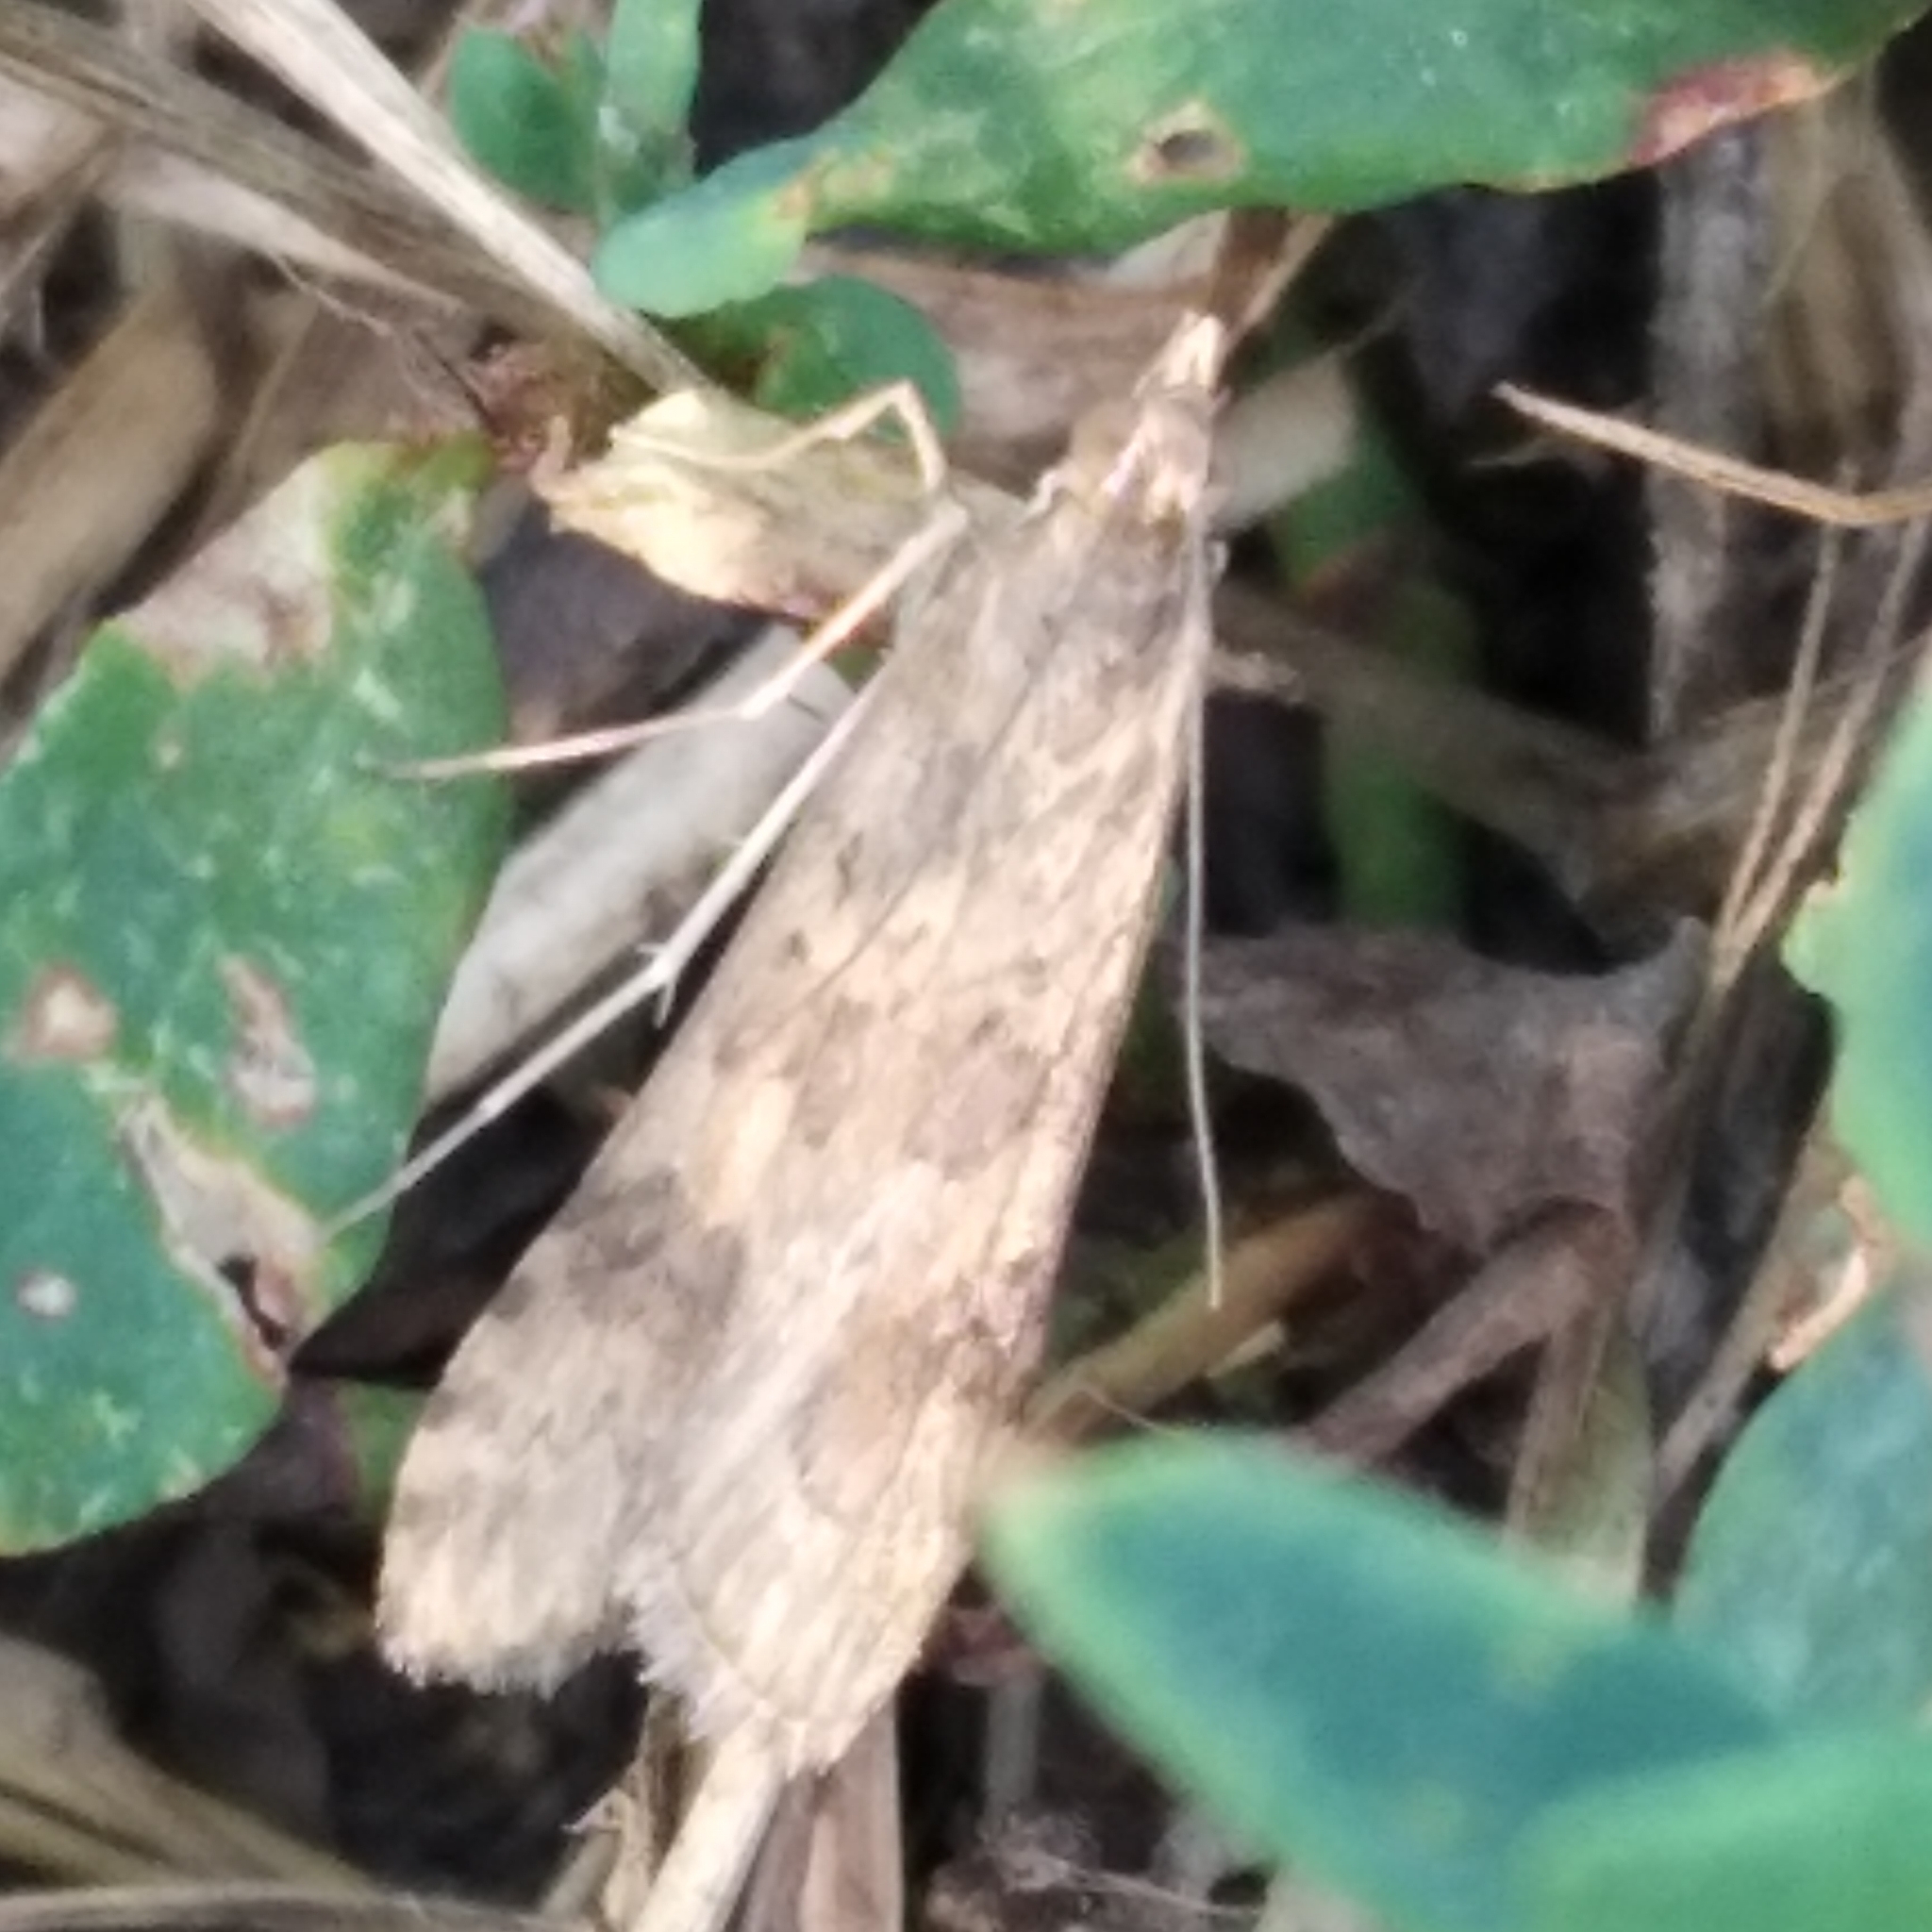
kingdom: Animalia
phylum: Arthropoda
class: Insecta
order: Lepidoptera
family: Crambidae
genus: Nomophila
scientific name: Nomophila noctuella
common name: Rush veneer
